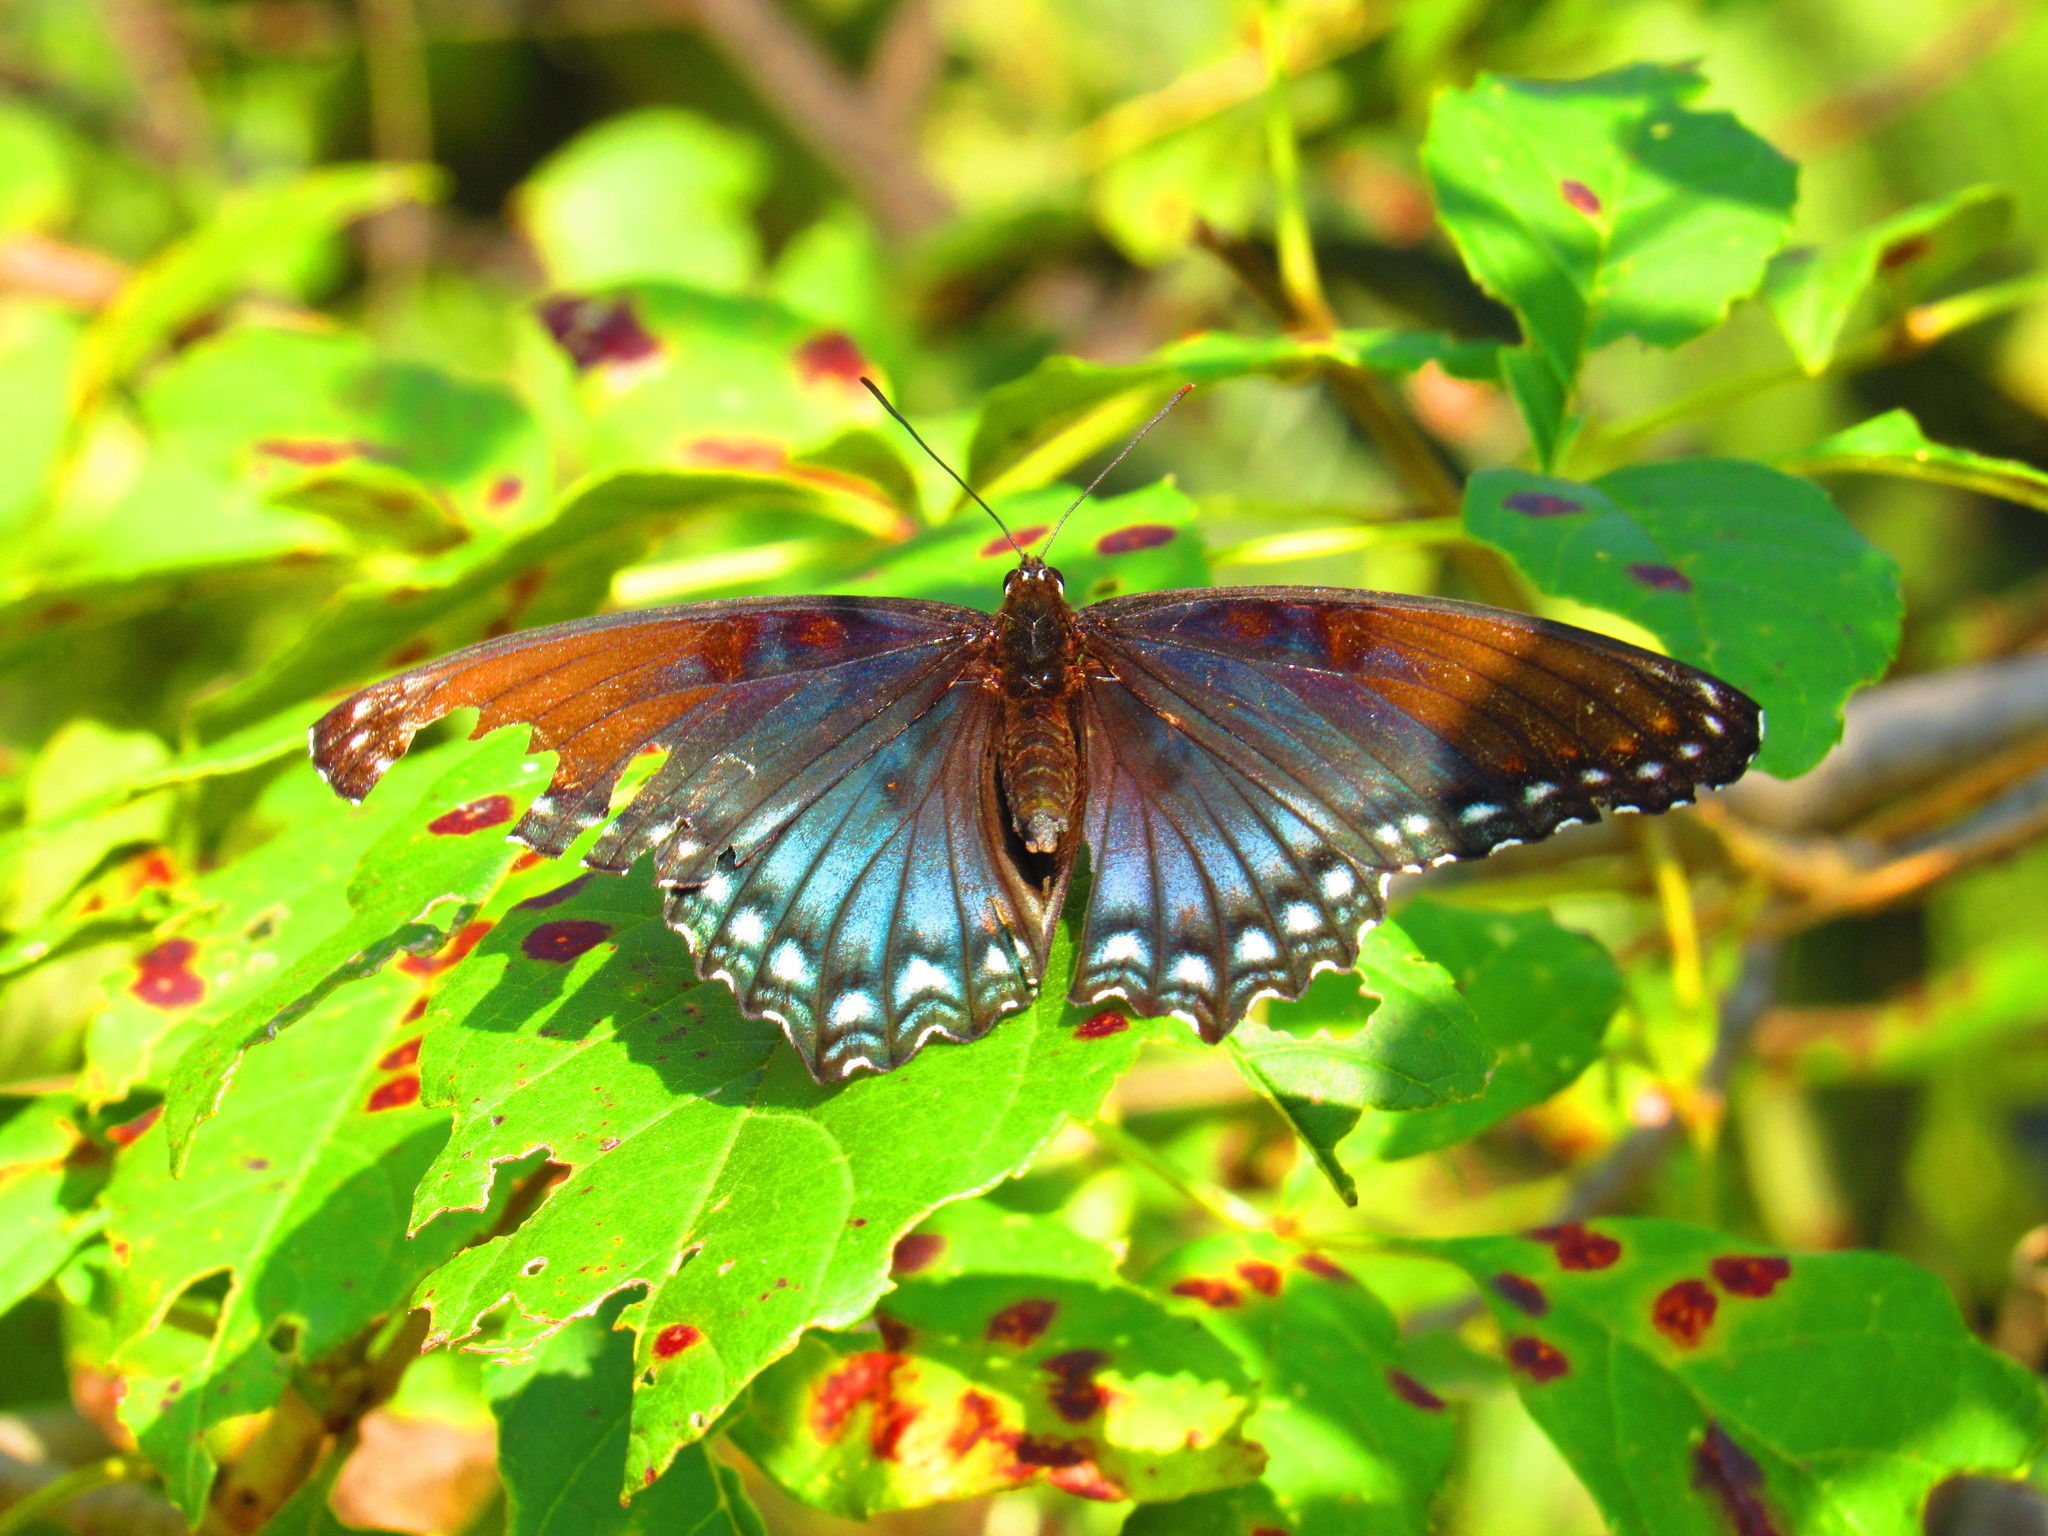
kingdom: Animalia
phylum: Arthropoda
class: Insecta
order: Lepidoptera
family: Nymphalidae
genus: Limenitis
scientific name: Limenitis arthemis
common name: Red-spotted admiral
